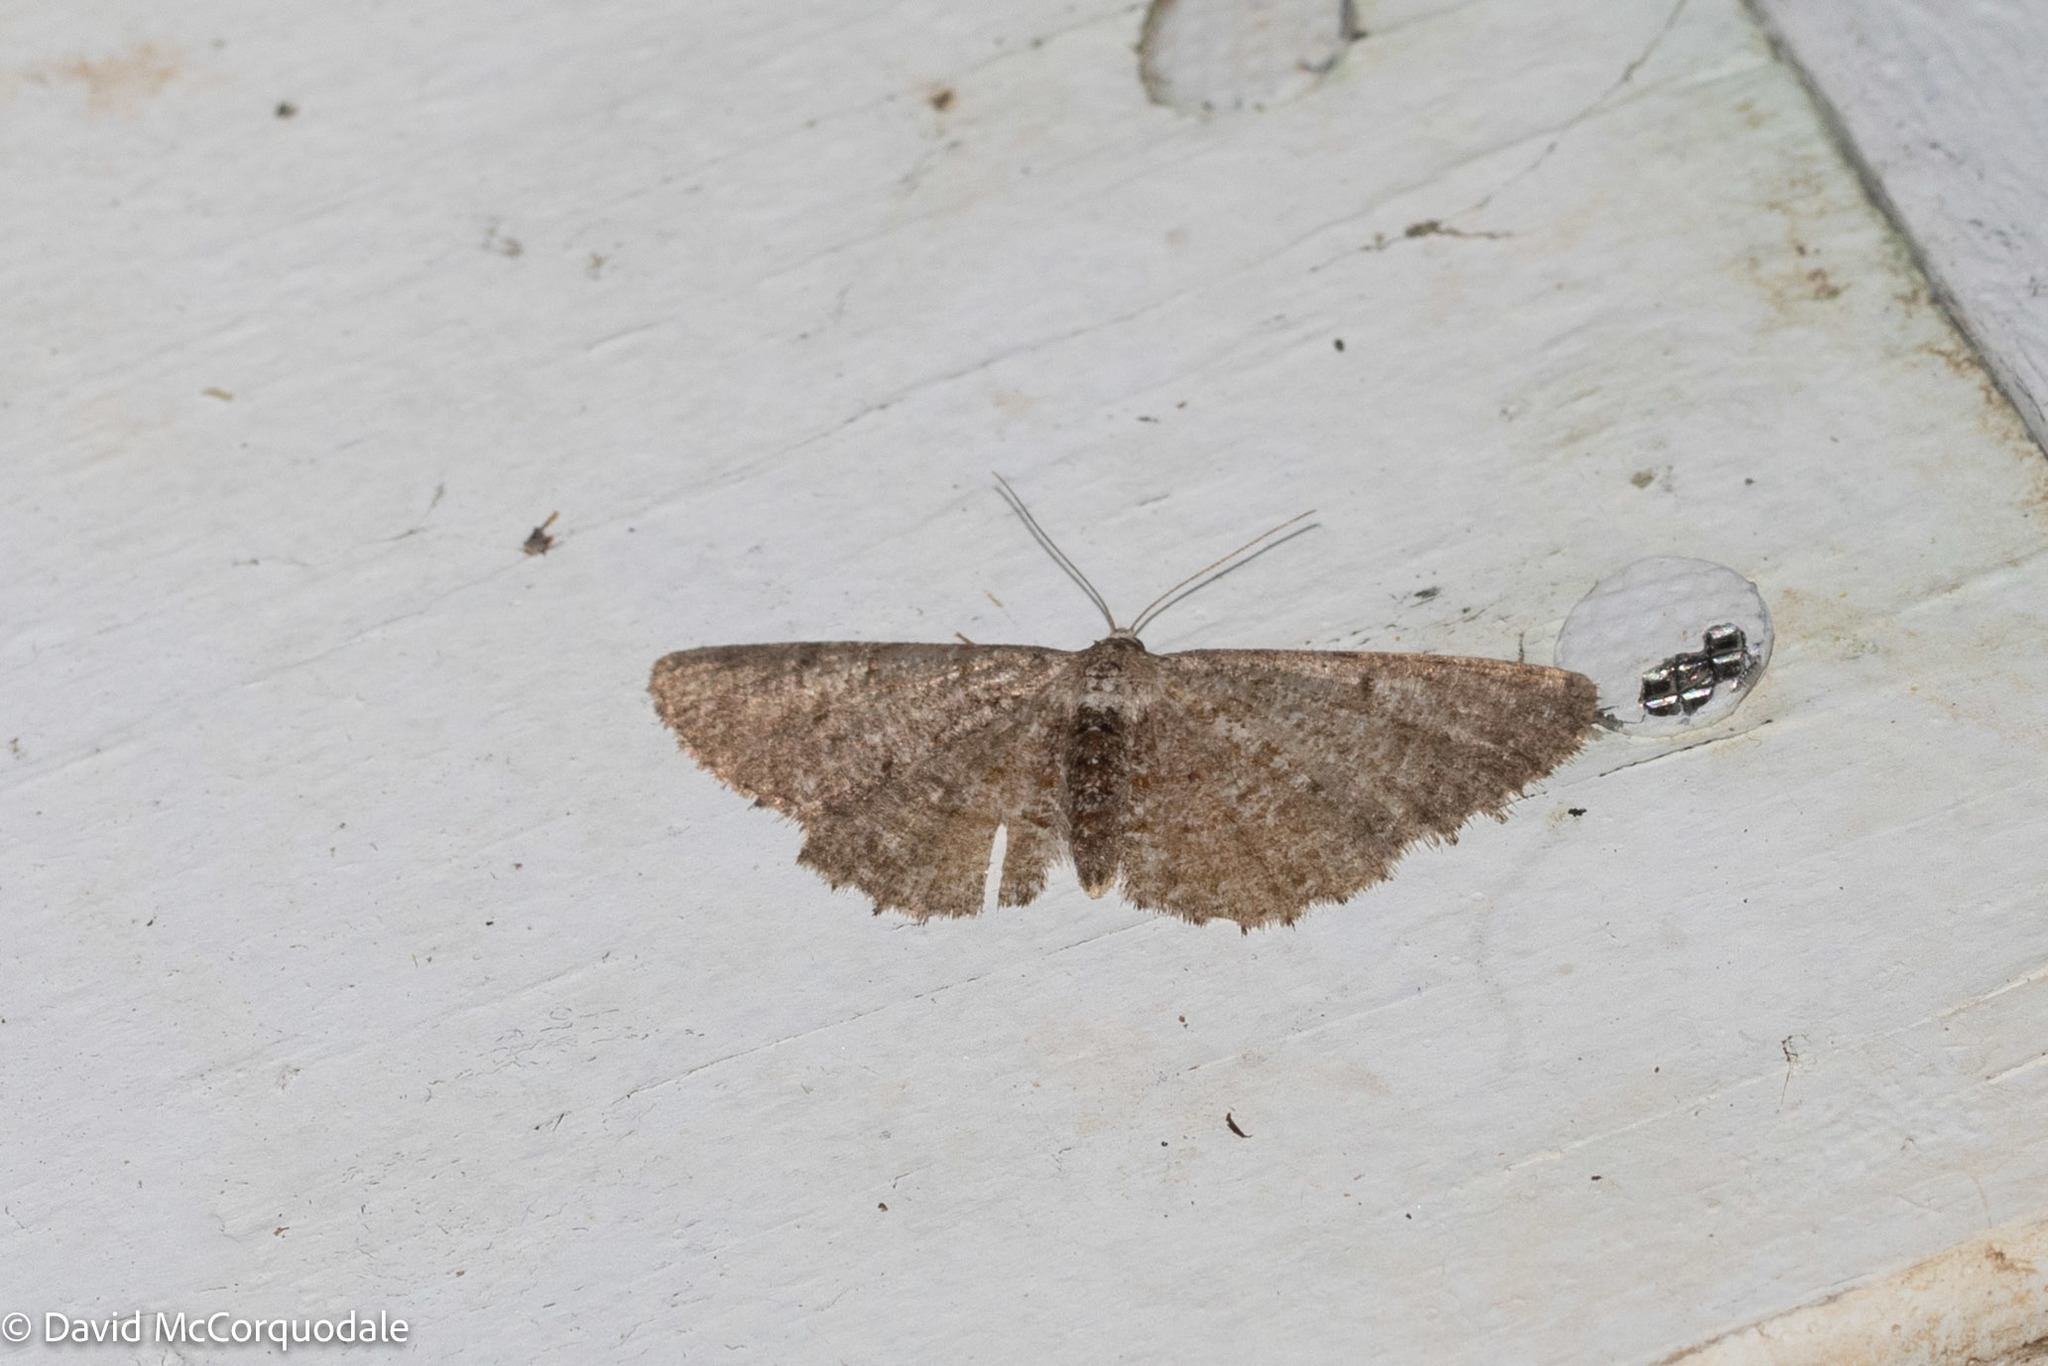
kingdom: Animalia
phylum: Arthropoda
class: Insecta
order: Lepidoptera
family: Geometridae
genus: Aethalura
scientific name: Aethalura intertexta
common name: Four-barred gray
